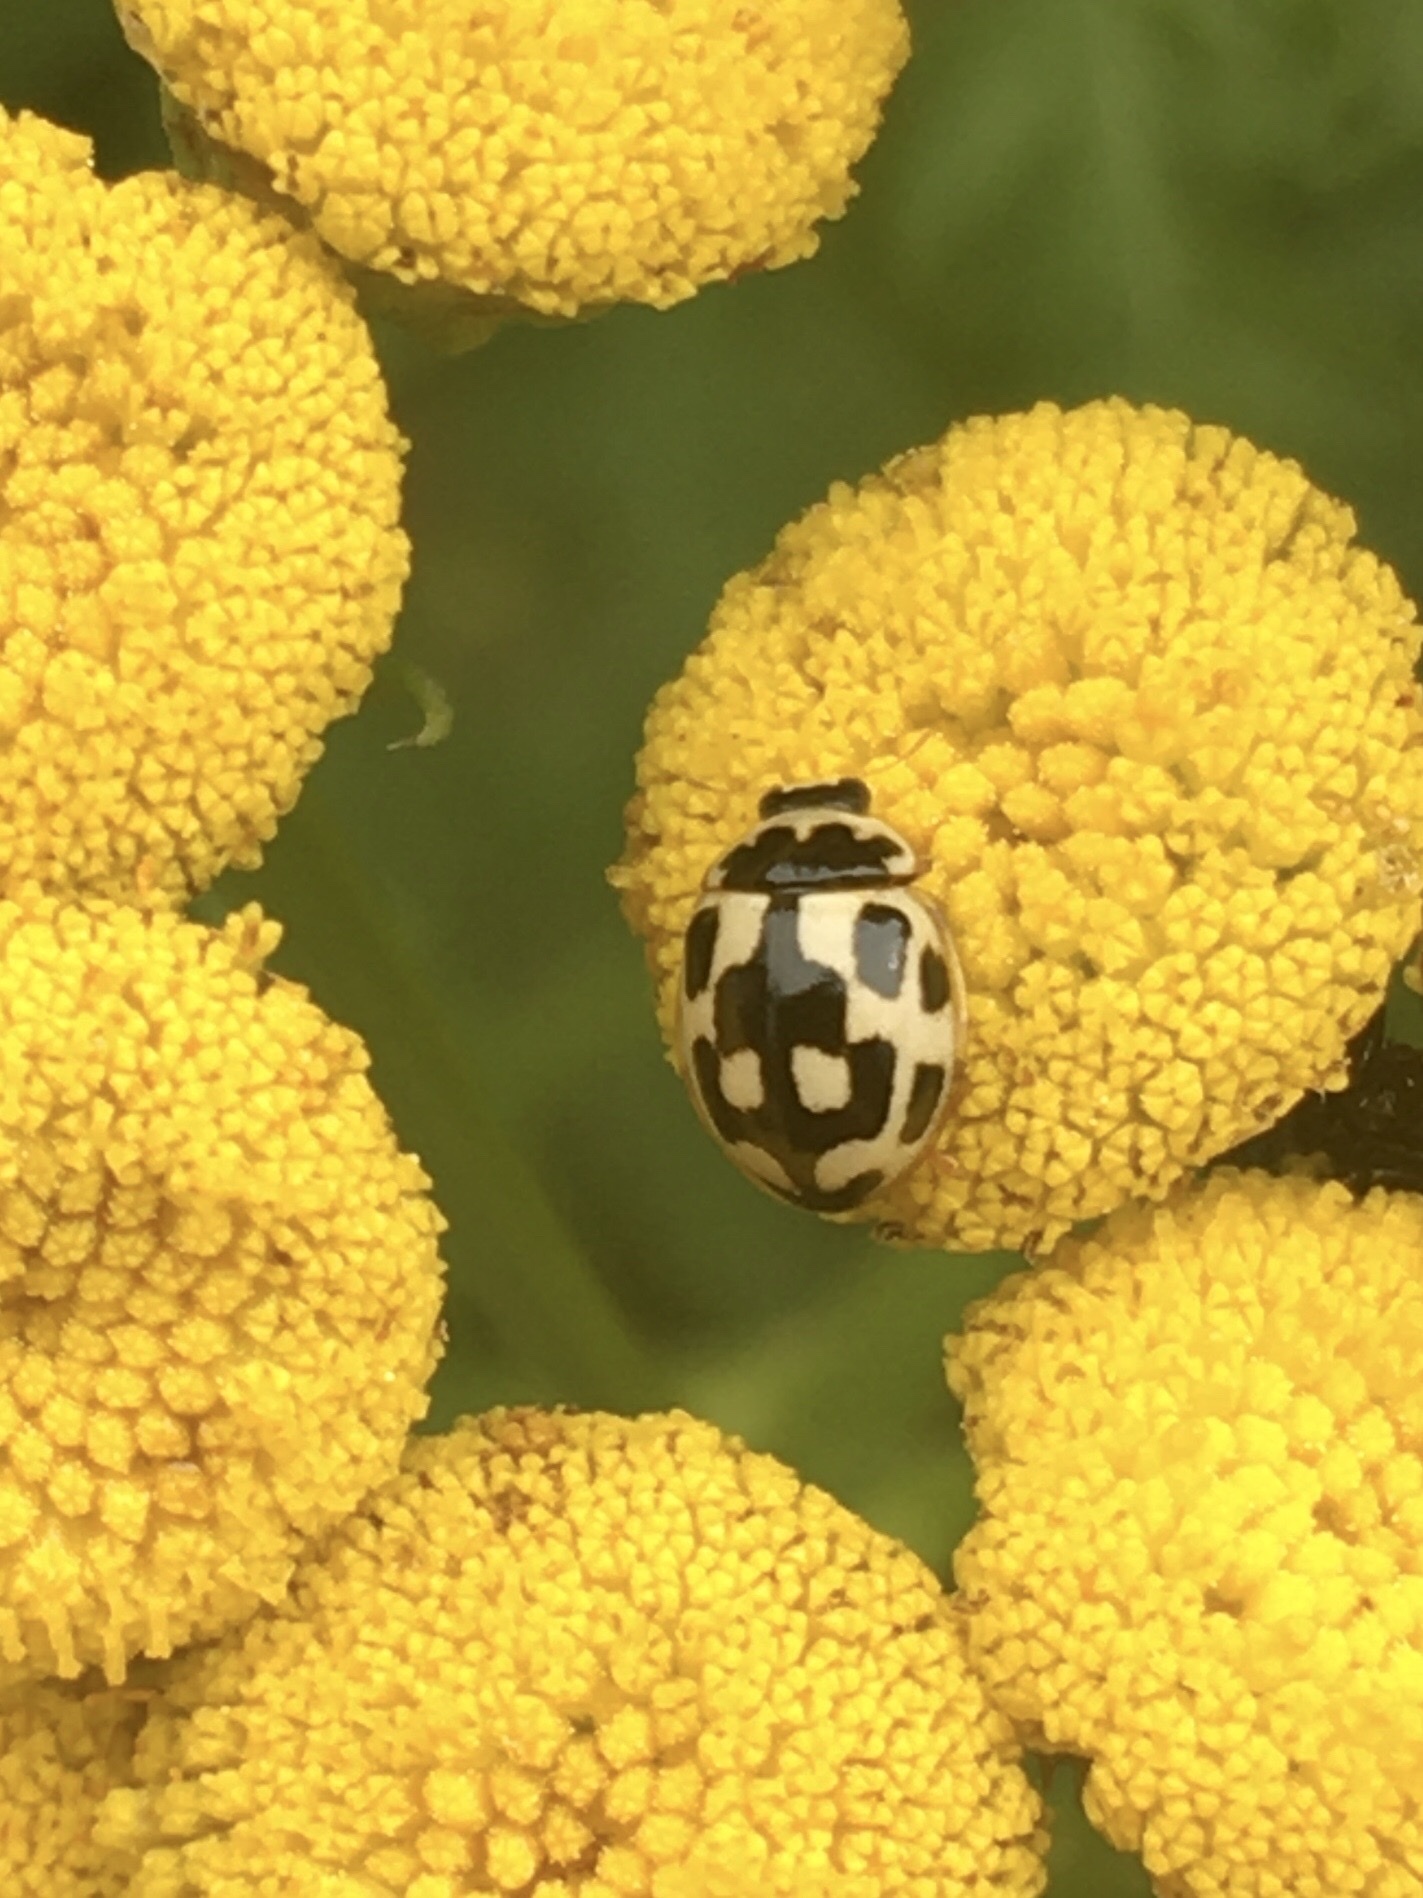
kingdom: Animalia
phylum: Arthropoda
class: Insecta
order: Coleoptera
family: Coccinellidae
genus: Propylaea
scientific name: Propylaea quatuordecimpunctata
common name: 14-spotted ladybird beetle
